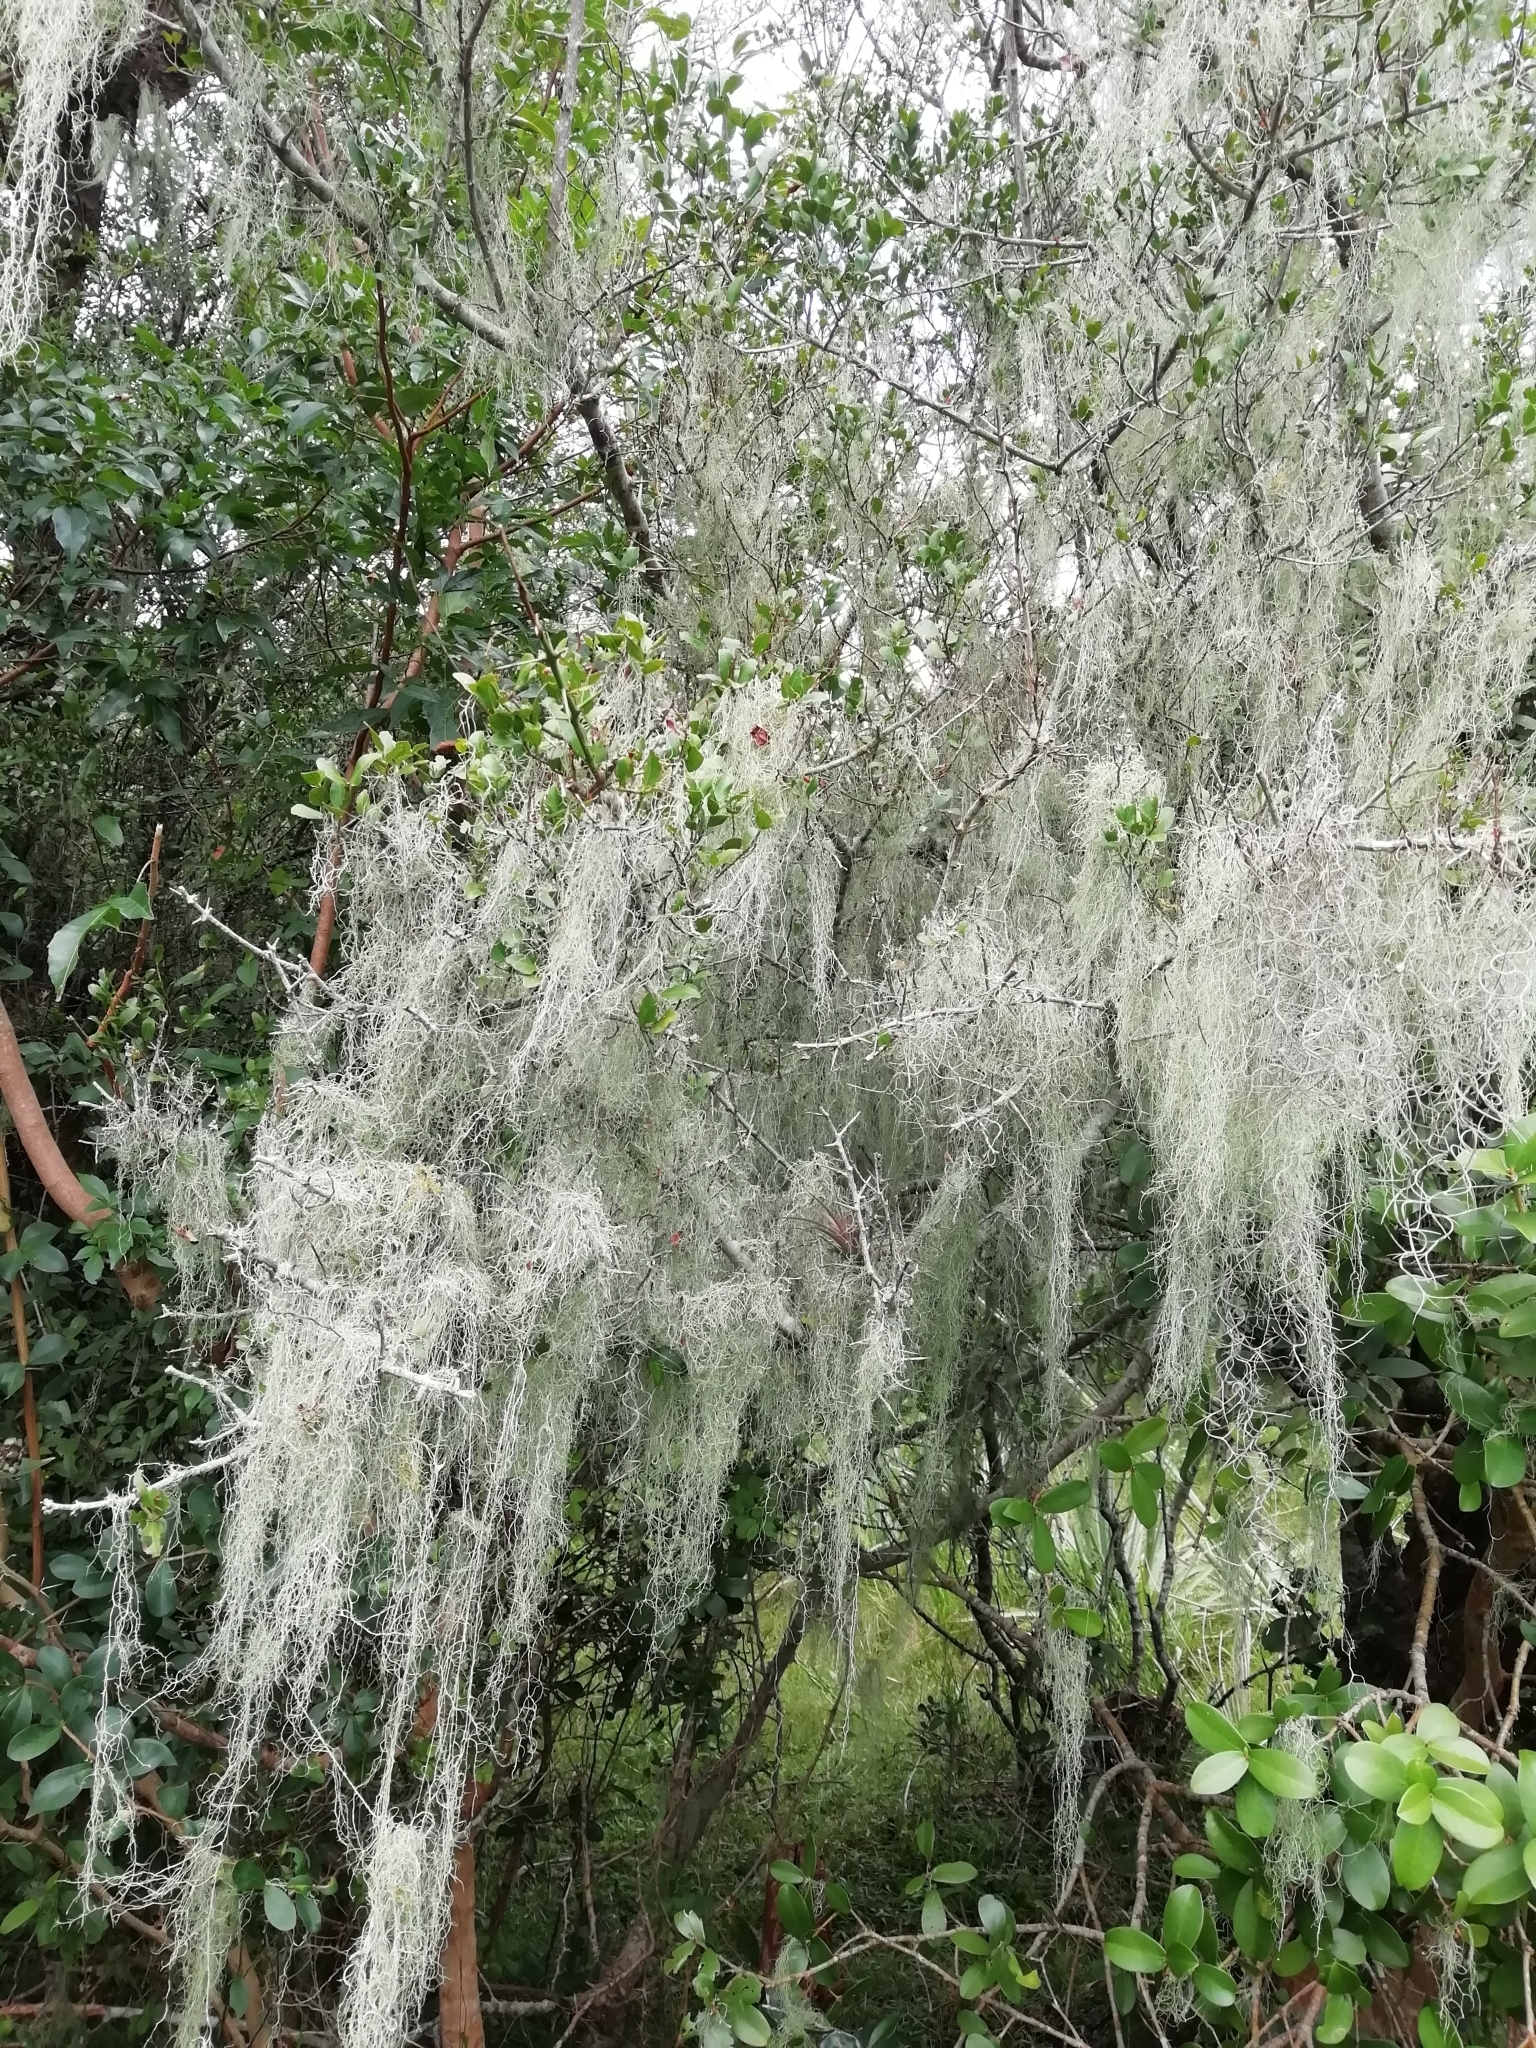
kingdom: Plantae
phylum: Tracheophyta
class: Liliopsida
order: Poales
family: Bromeliaceae
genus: Tillandsia
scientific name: Tillandsia usneoides
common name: Spanish moss
